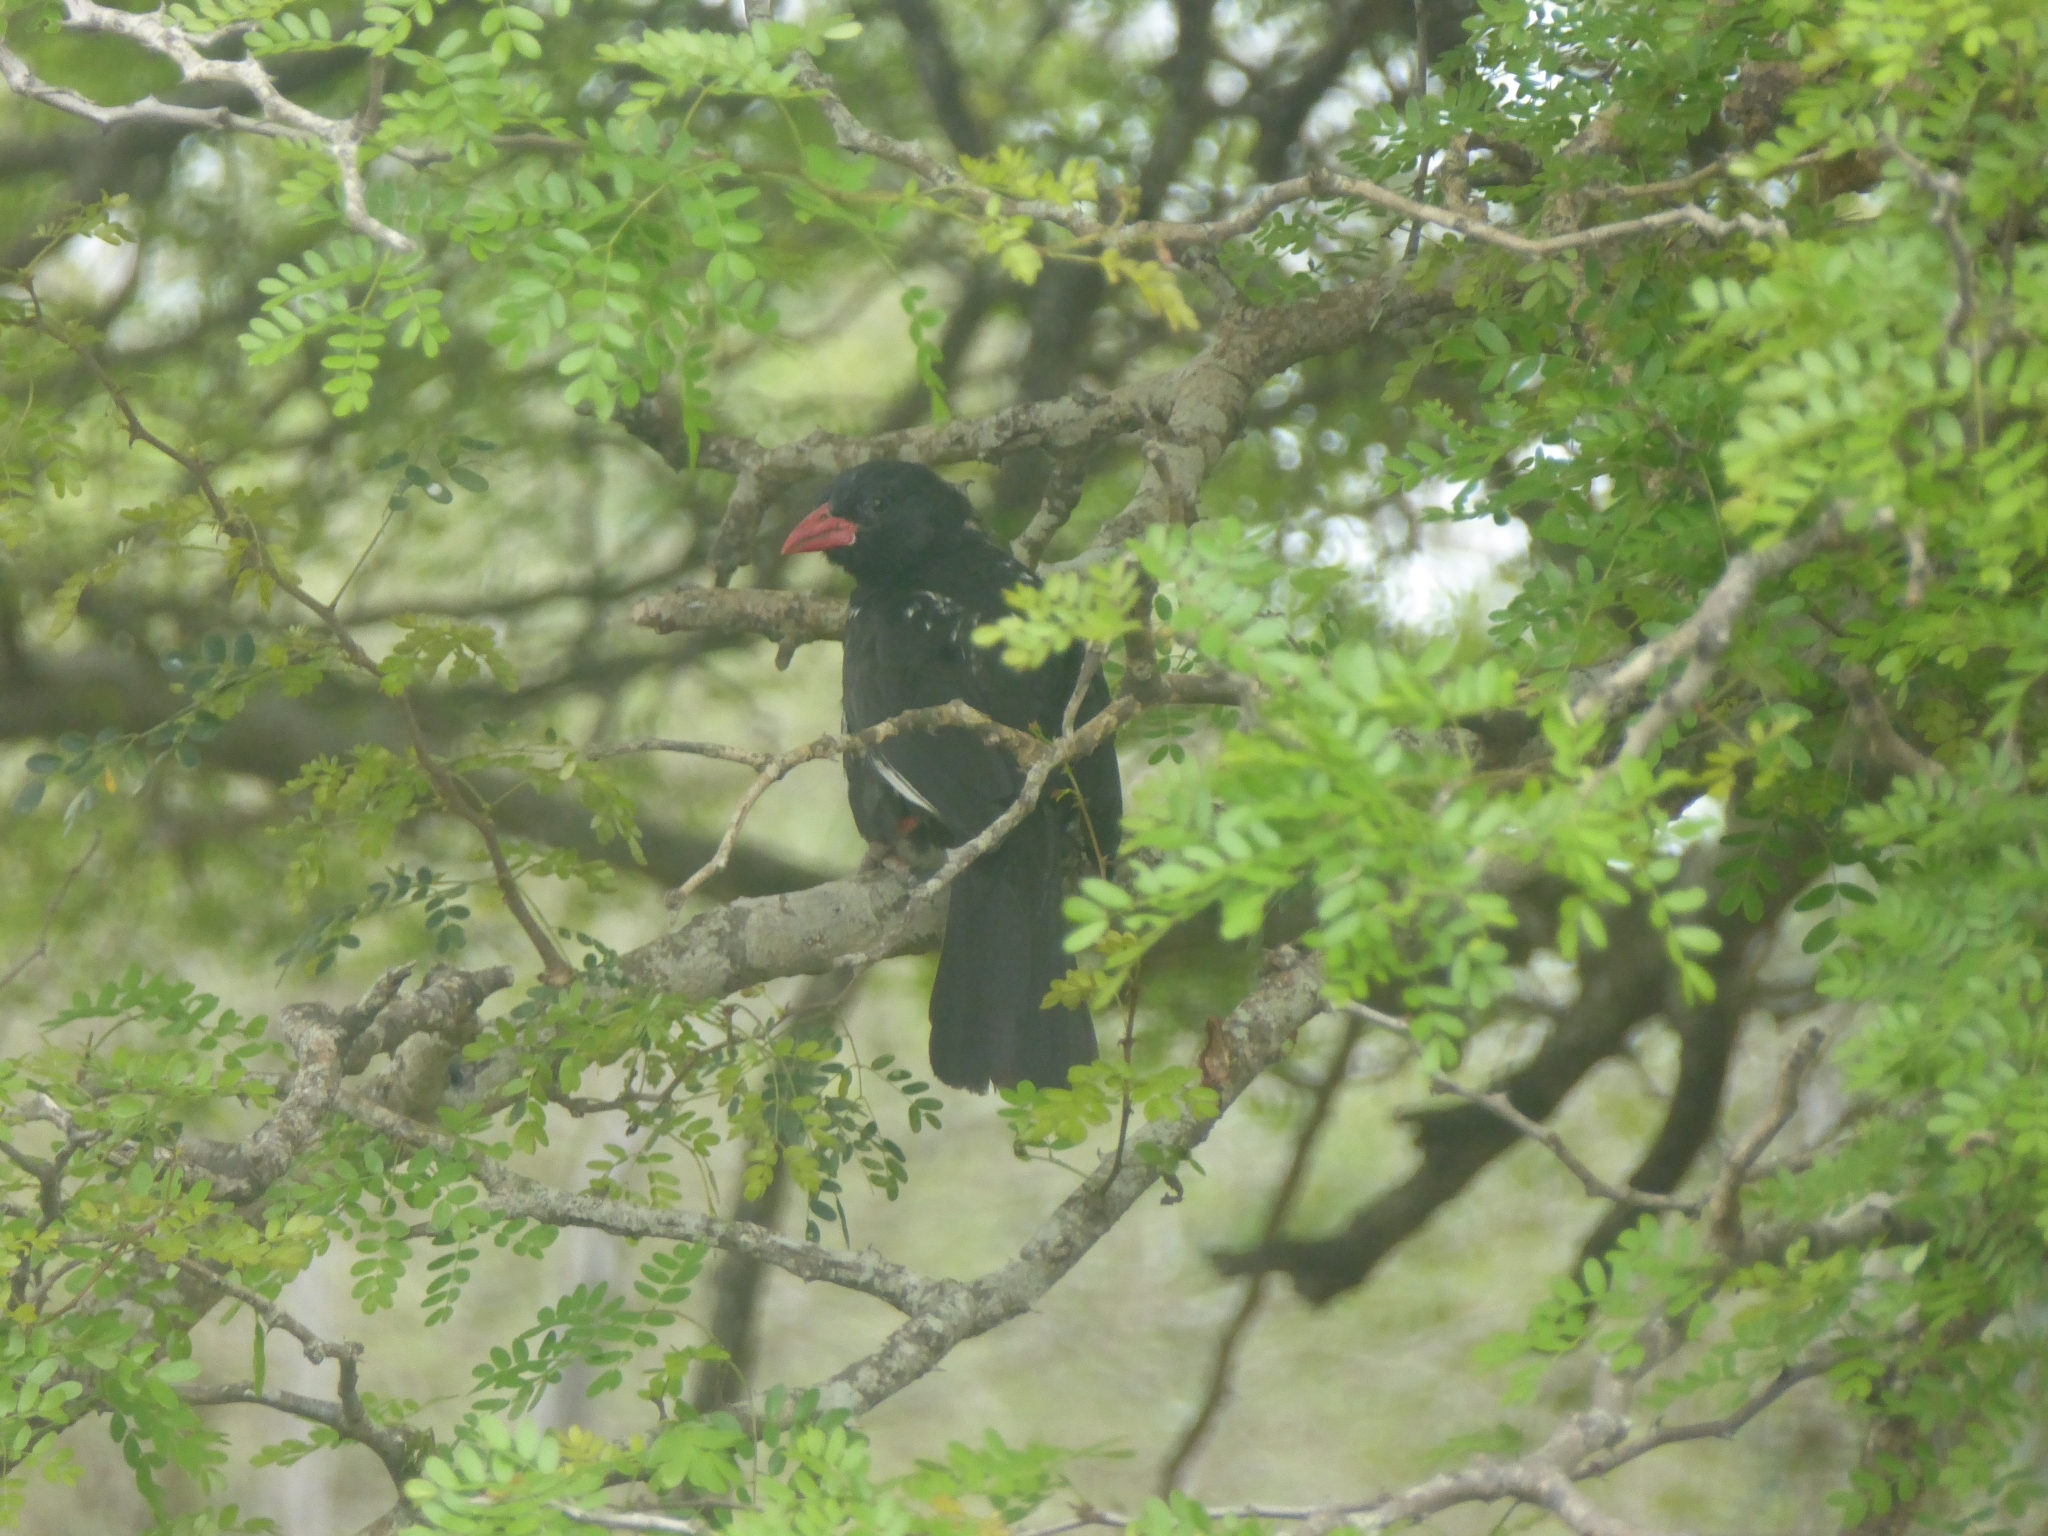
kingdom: Animalia
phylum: Chordata
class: Aves
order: Passeriformes
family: Ploceidae
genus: Bubalornis
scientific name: Bubalornis niger
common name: Red-billed buffalo weaver
